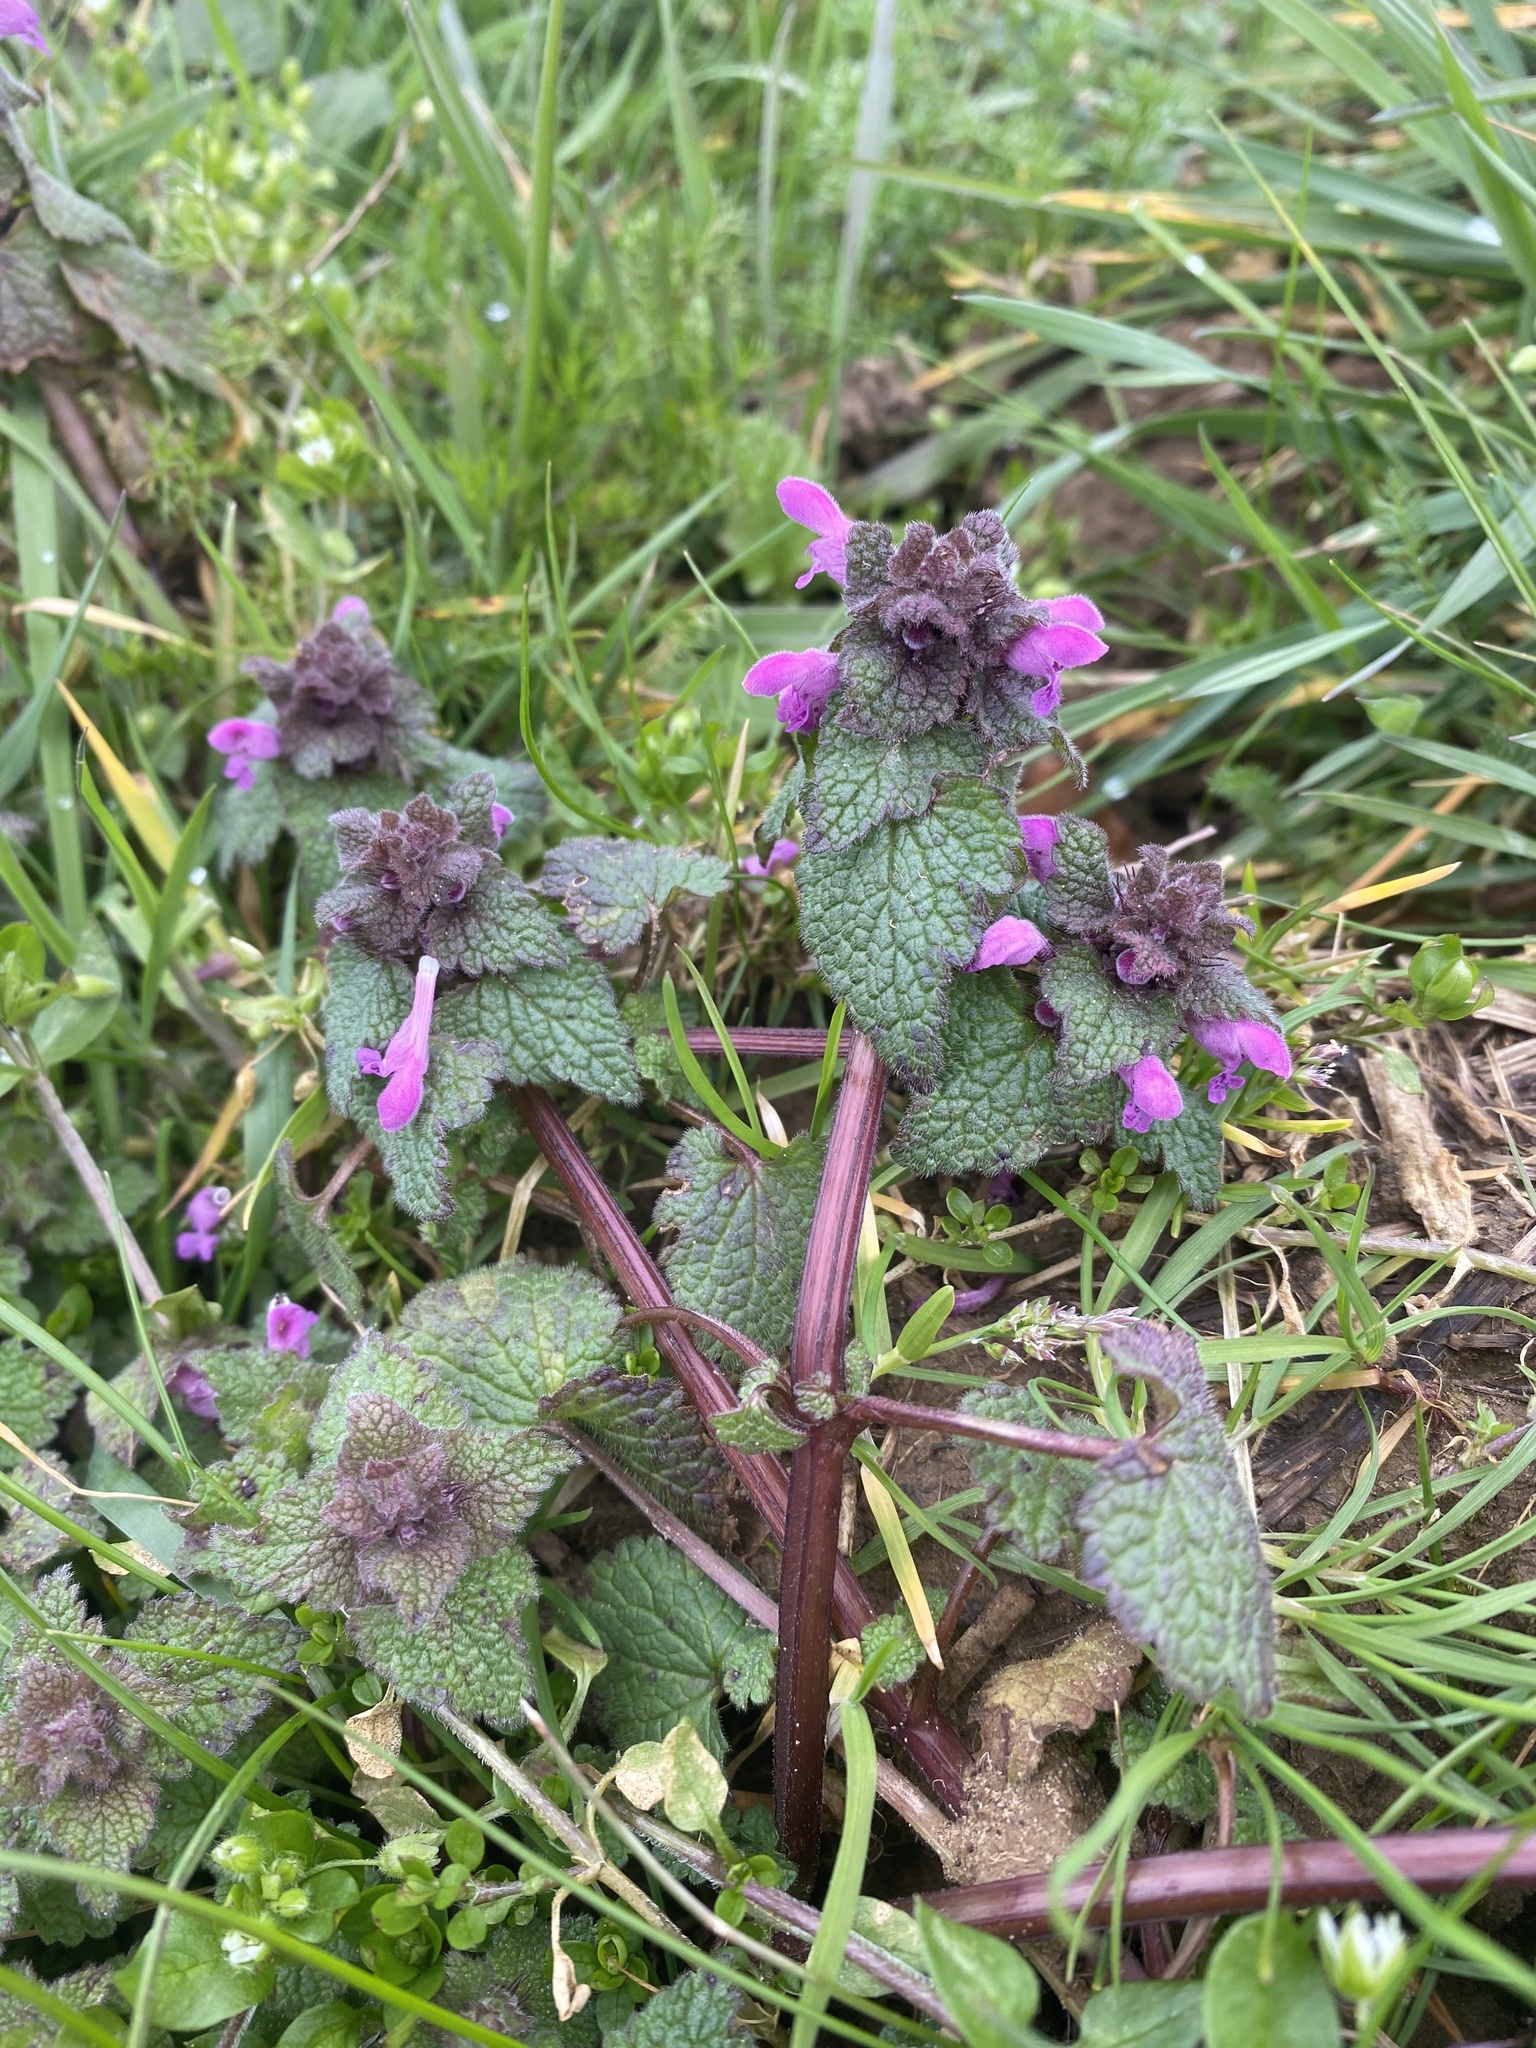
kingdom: Plantae
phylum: Tracheophyta
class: Magnoliopsida
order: Lamiales
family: Lamiaceae
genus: Lamium
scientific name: Lamium purpureum
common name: Red dead-nettle
